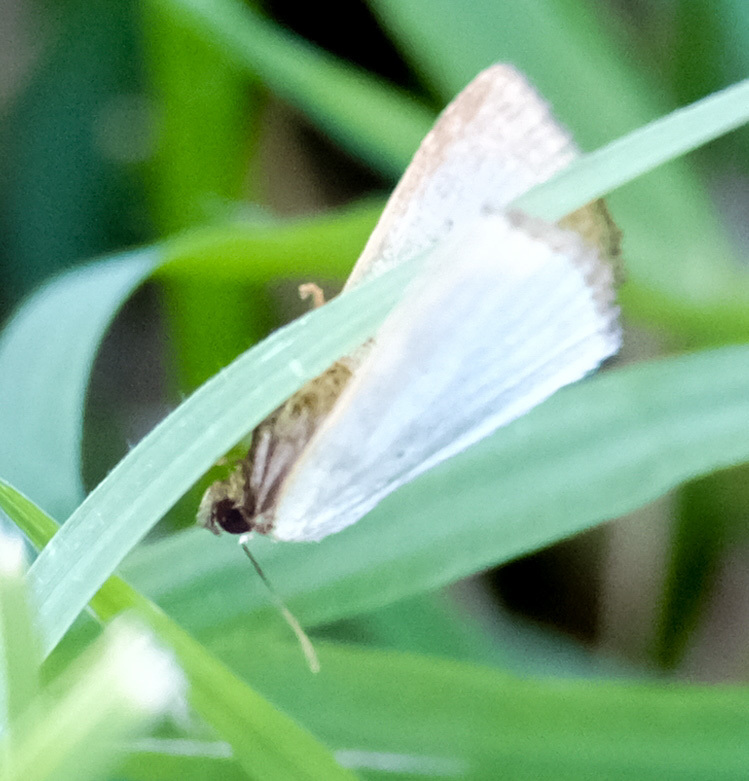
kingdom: Animalia
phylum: Arthropoda
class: Insecta
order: Lepidoptera
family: Noctuidae
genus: Marimatha
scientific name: Marimatha nigrofimbria
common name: Black-bordered lemon moth
